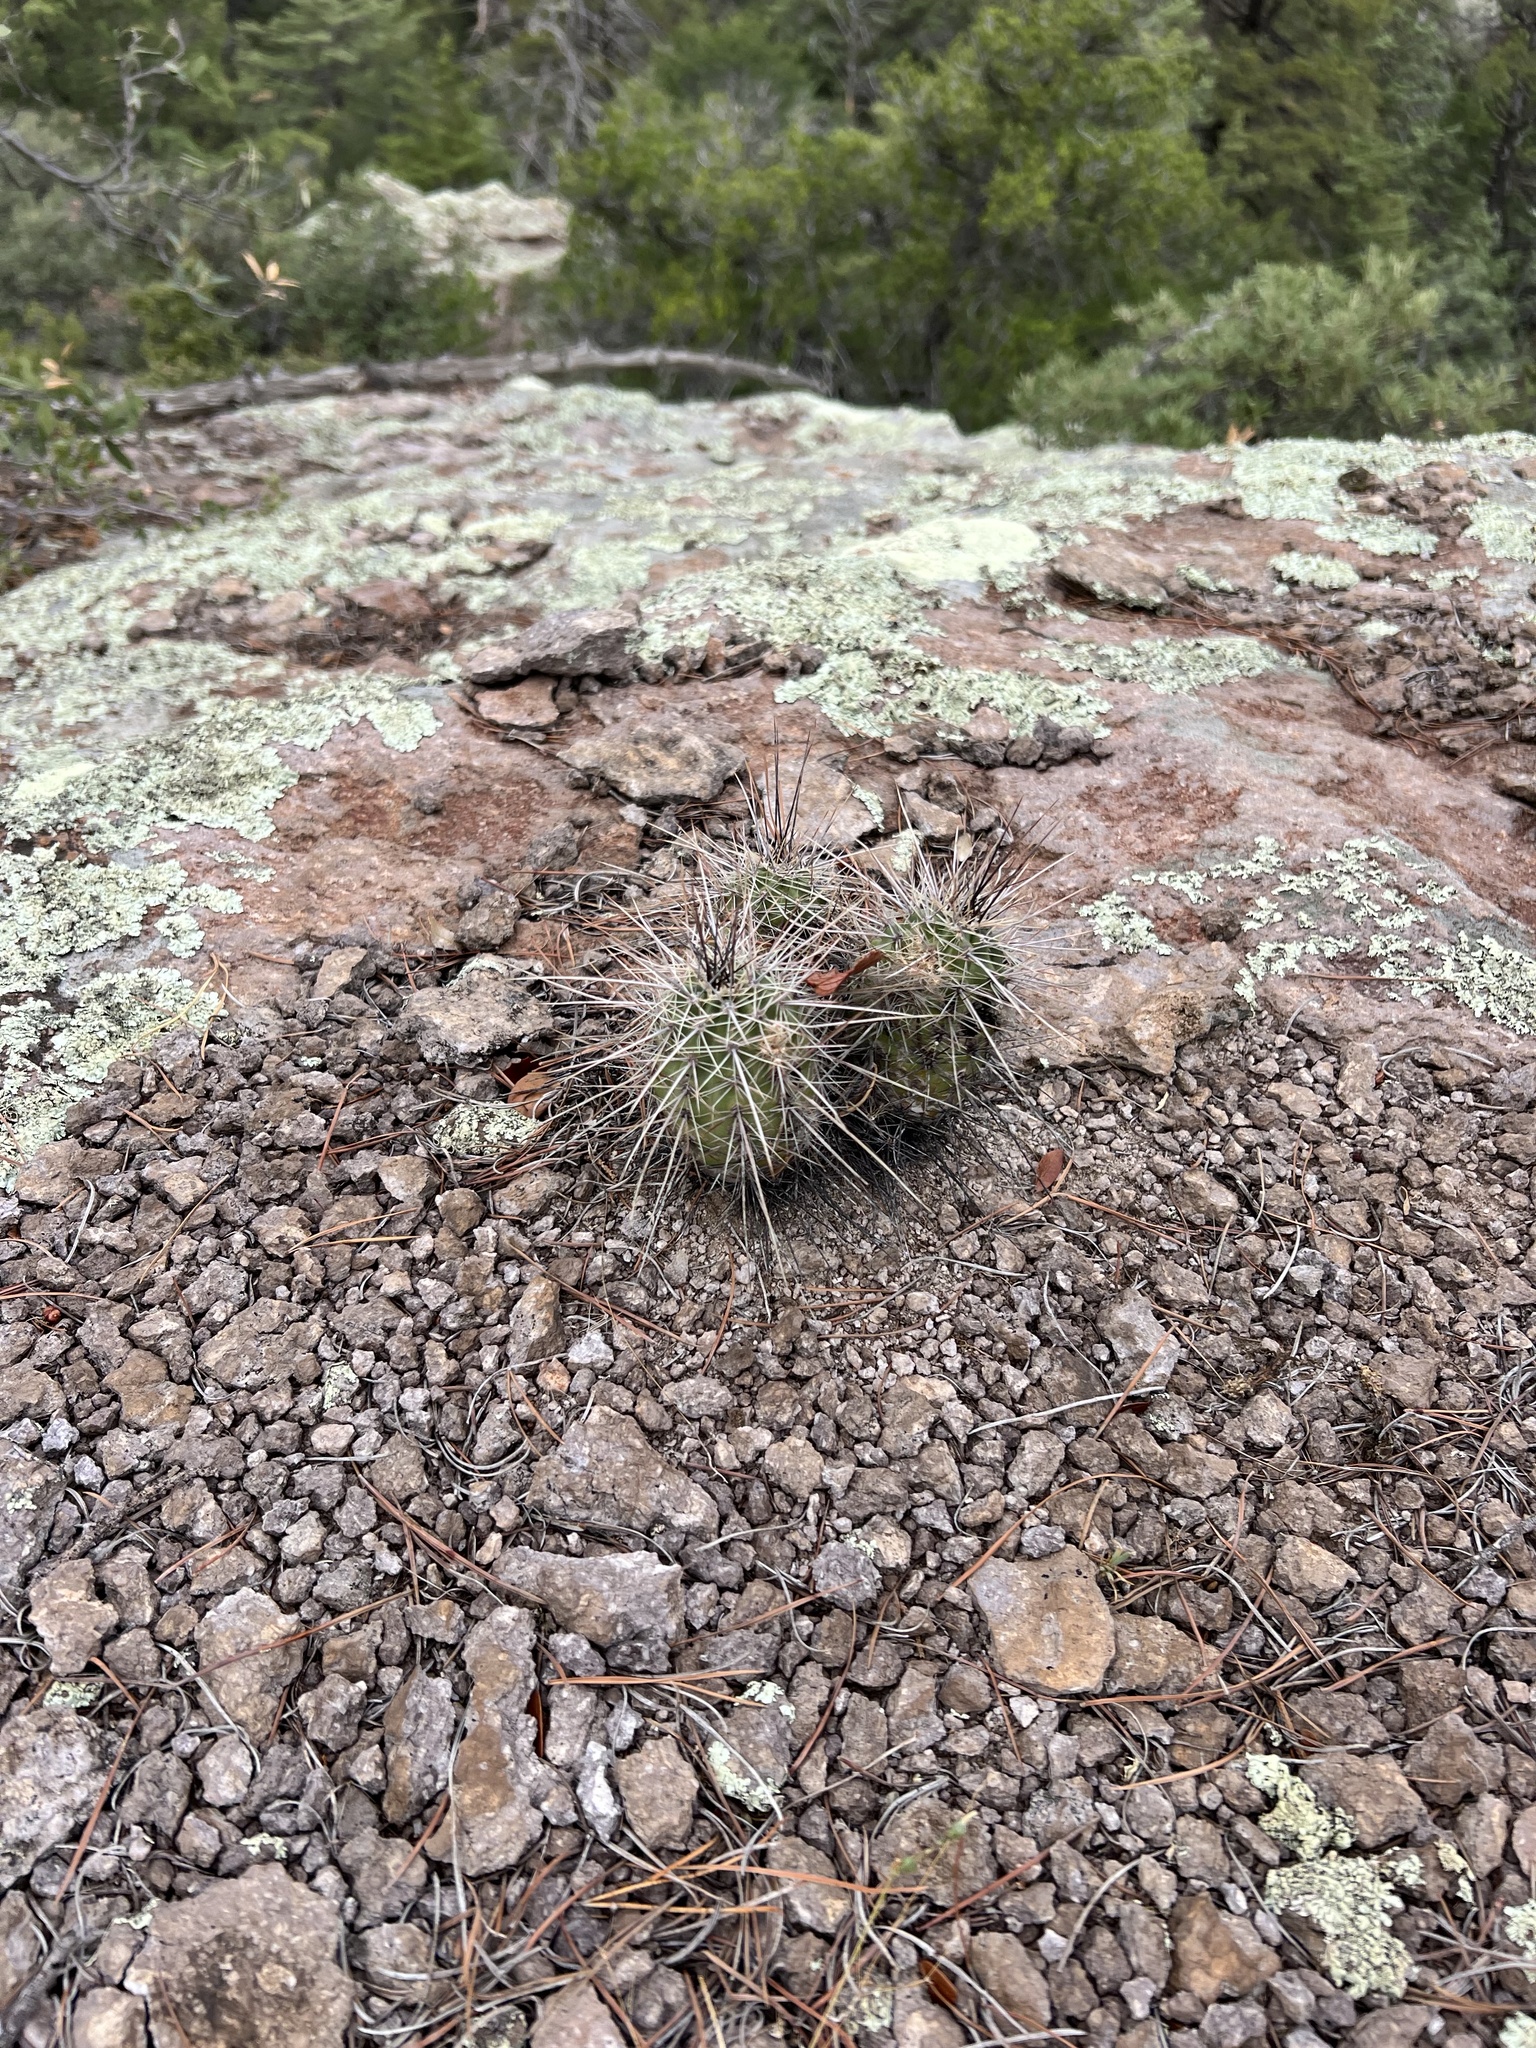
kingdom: Plantae
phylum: Tracheophyta
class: Magnoliopsida
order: Caryophyllales
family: Cactaceae
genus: Echinocereus
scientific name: Echinocereus coccineus
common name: Scarlet hedgehog cactus
